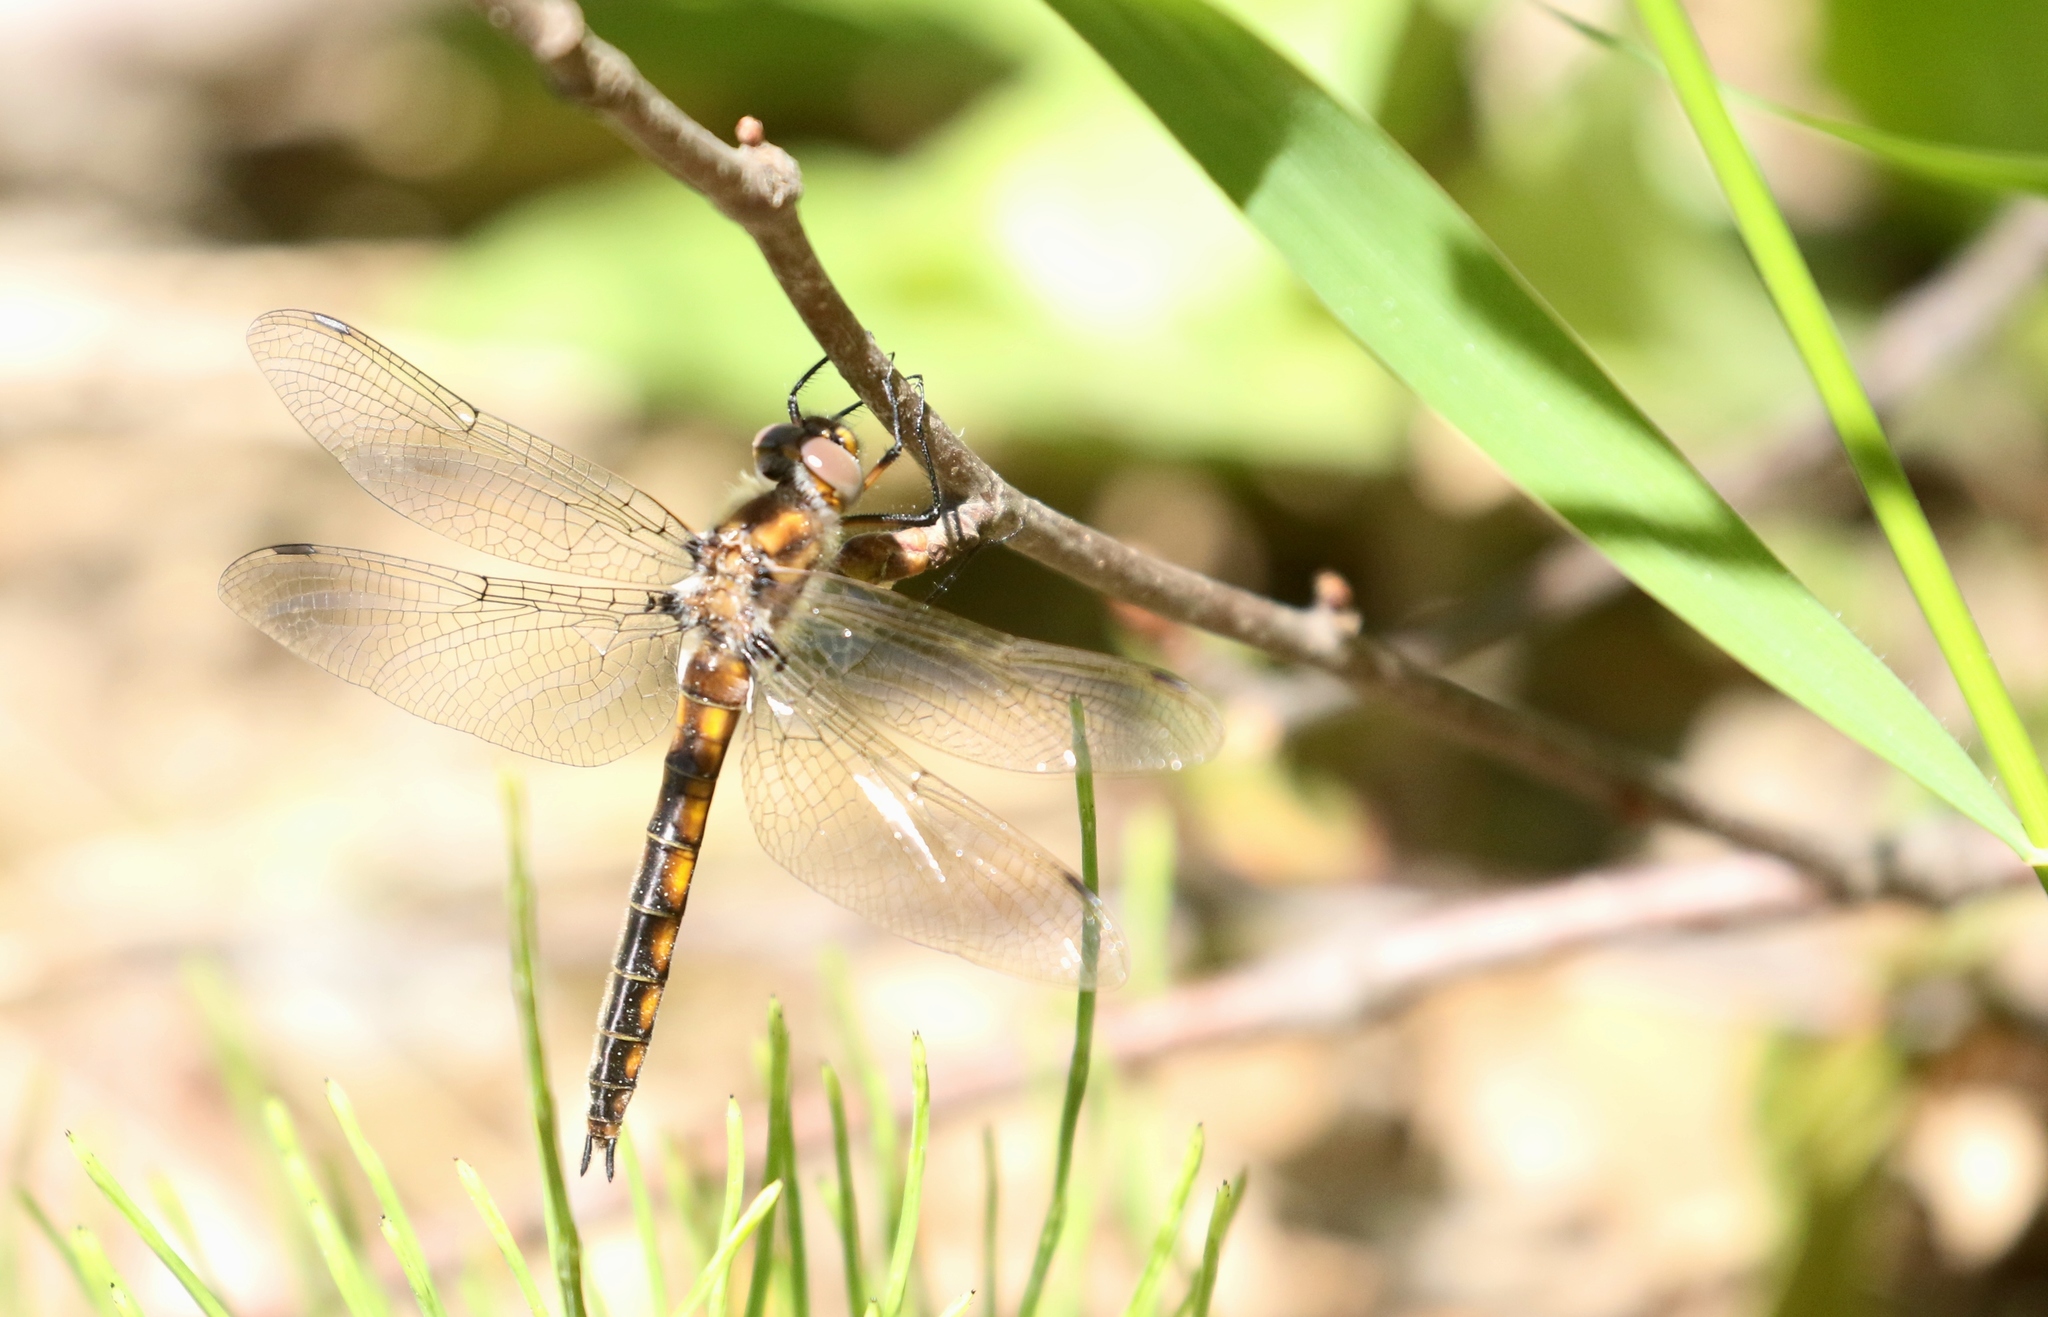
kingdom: Animalia
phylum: Arthropoda
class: Insecta
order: Odonata
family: Corduliidae
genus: Epitheca
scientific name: Epitheca canis
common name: Beaverpond baskettail
